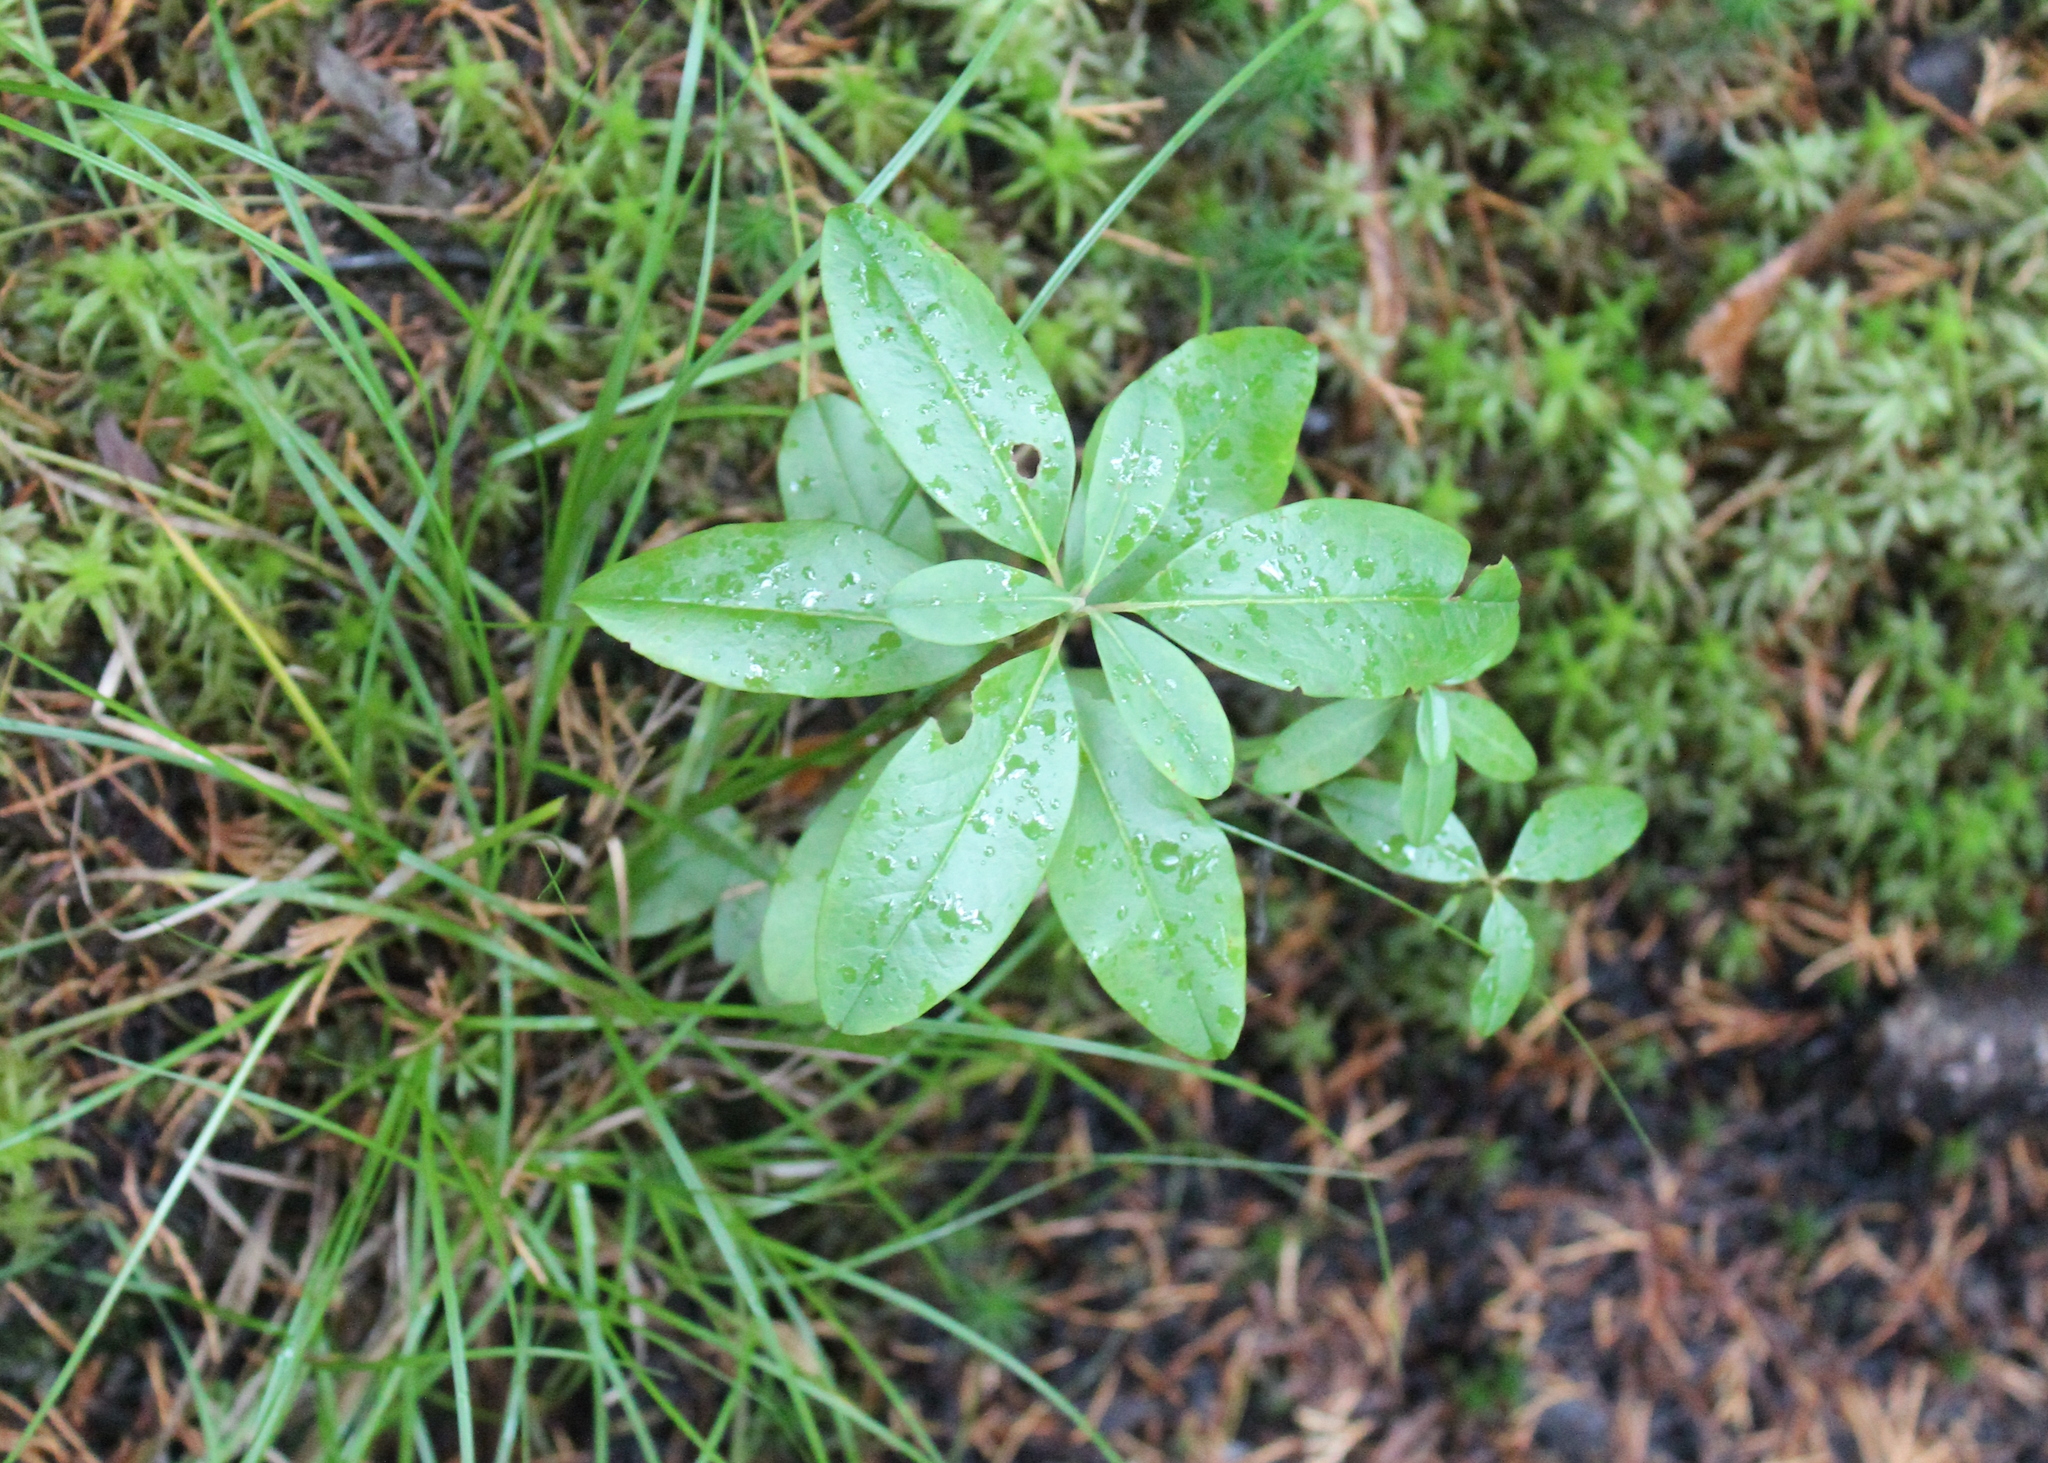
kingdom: Plantae
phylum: Tracheophyta
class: Magnoliopsida
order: Ericales
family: Ericaceae
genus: Kalmia
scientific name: Kalmia angustifolia
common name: Sheep-laurel
